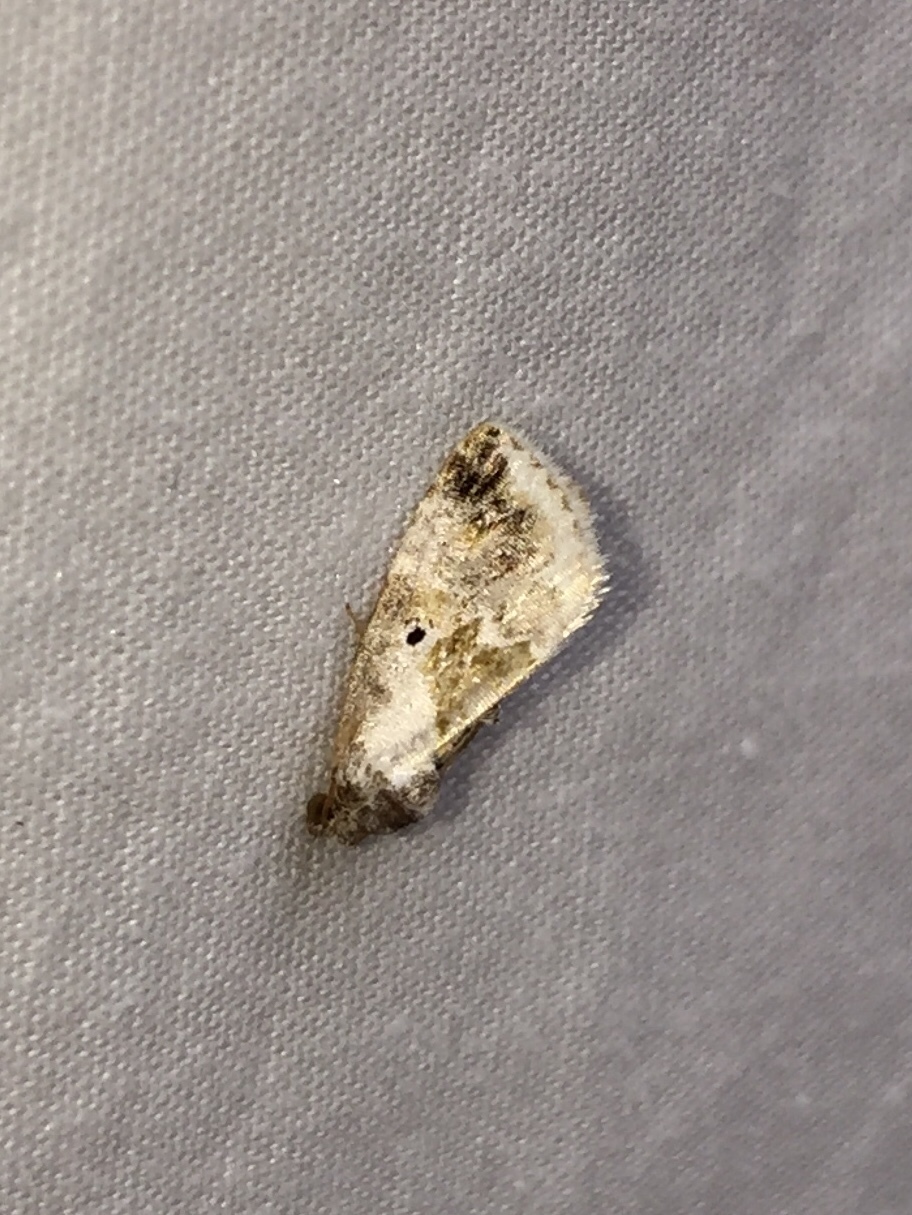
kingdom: Animalia
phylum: Arthropoda
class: Insecta
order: Lepidoptera
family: Noctuidae
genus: Maliattha
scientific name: Maliattha synochitis
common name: Black-dotted glyph
